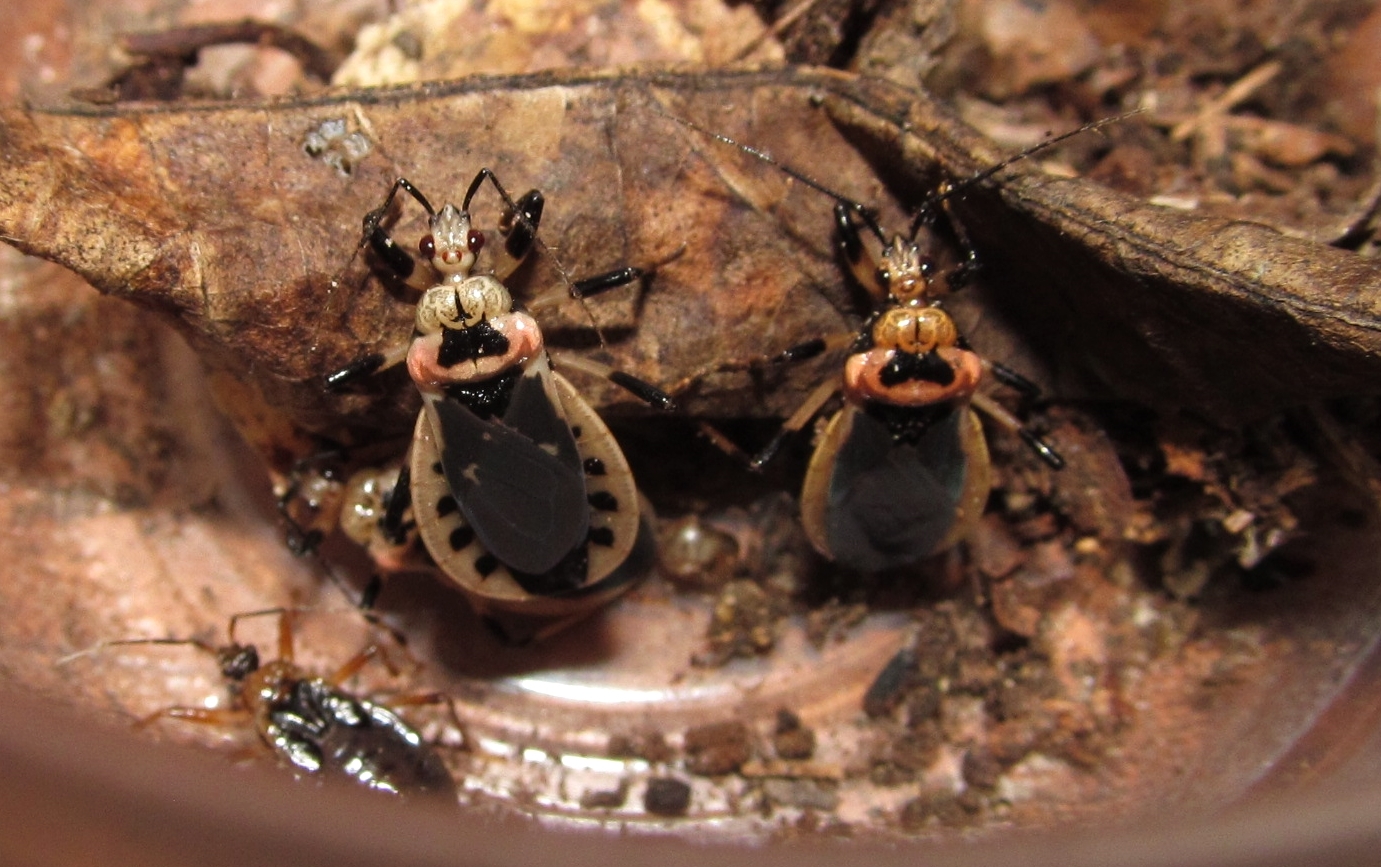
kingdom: Animalia
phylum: Arthropoda
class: Insecta
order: Hemiptera
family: Reduviidae
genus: Rhiginia
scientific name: Rhiginia cruciata
